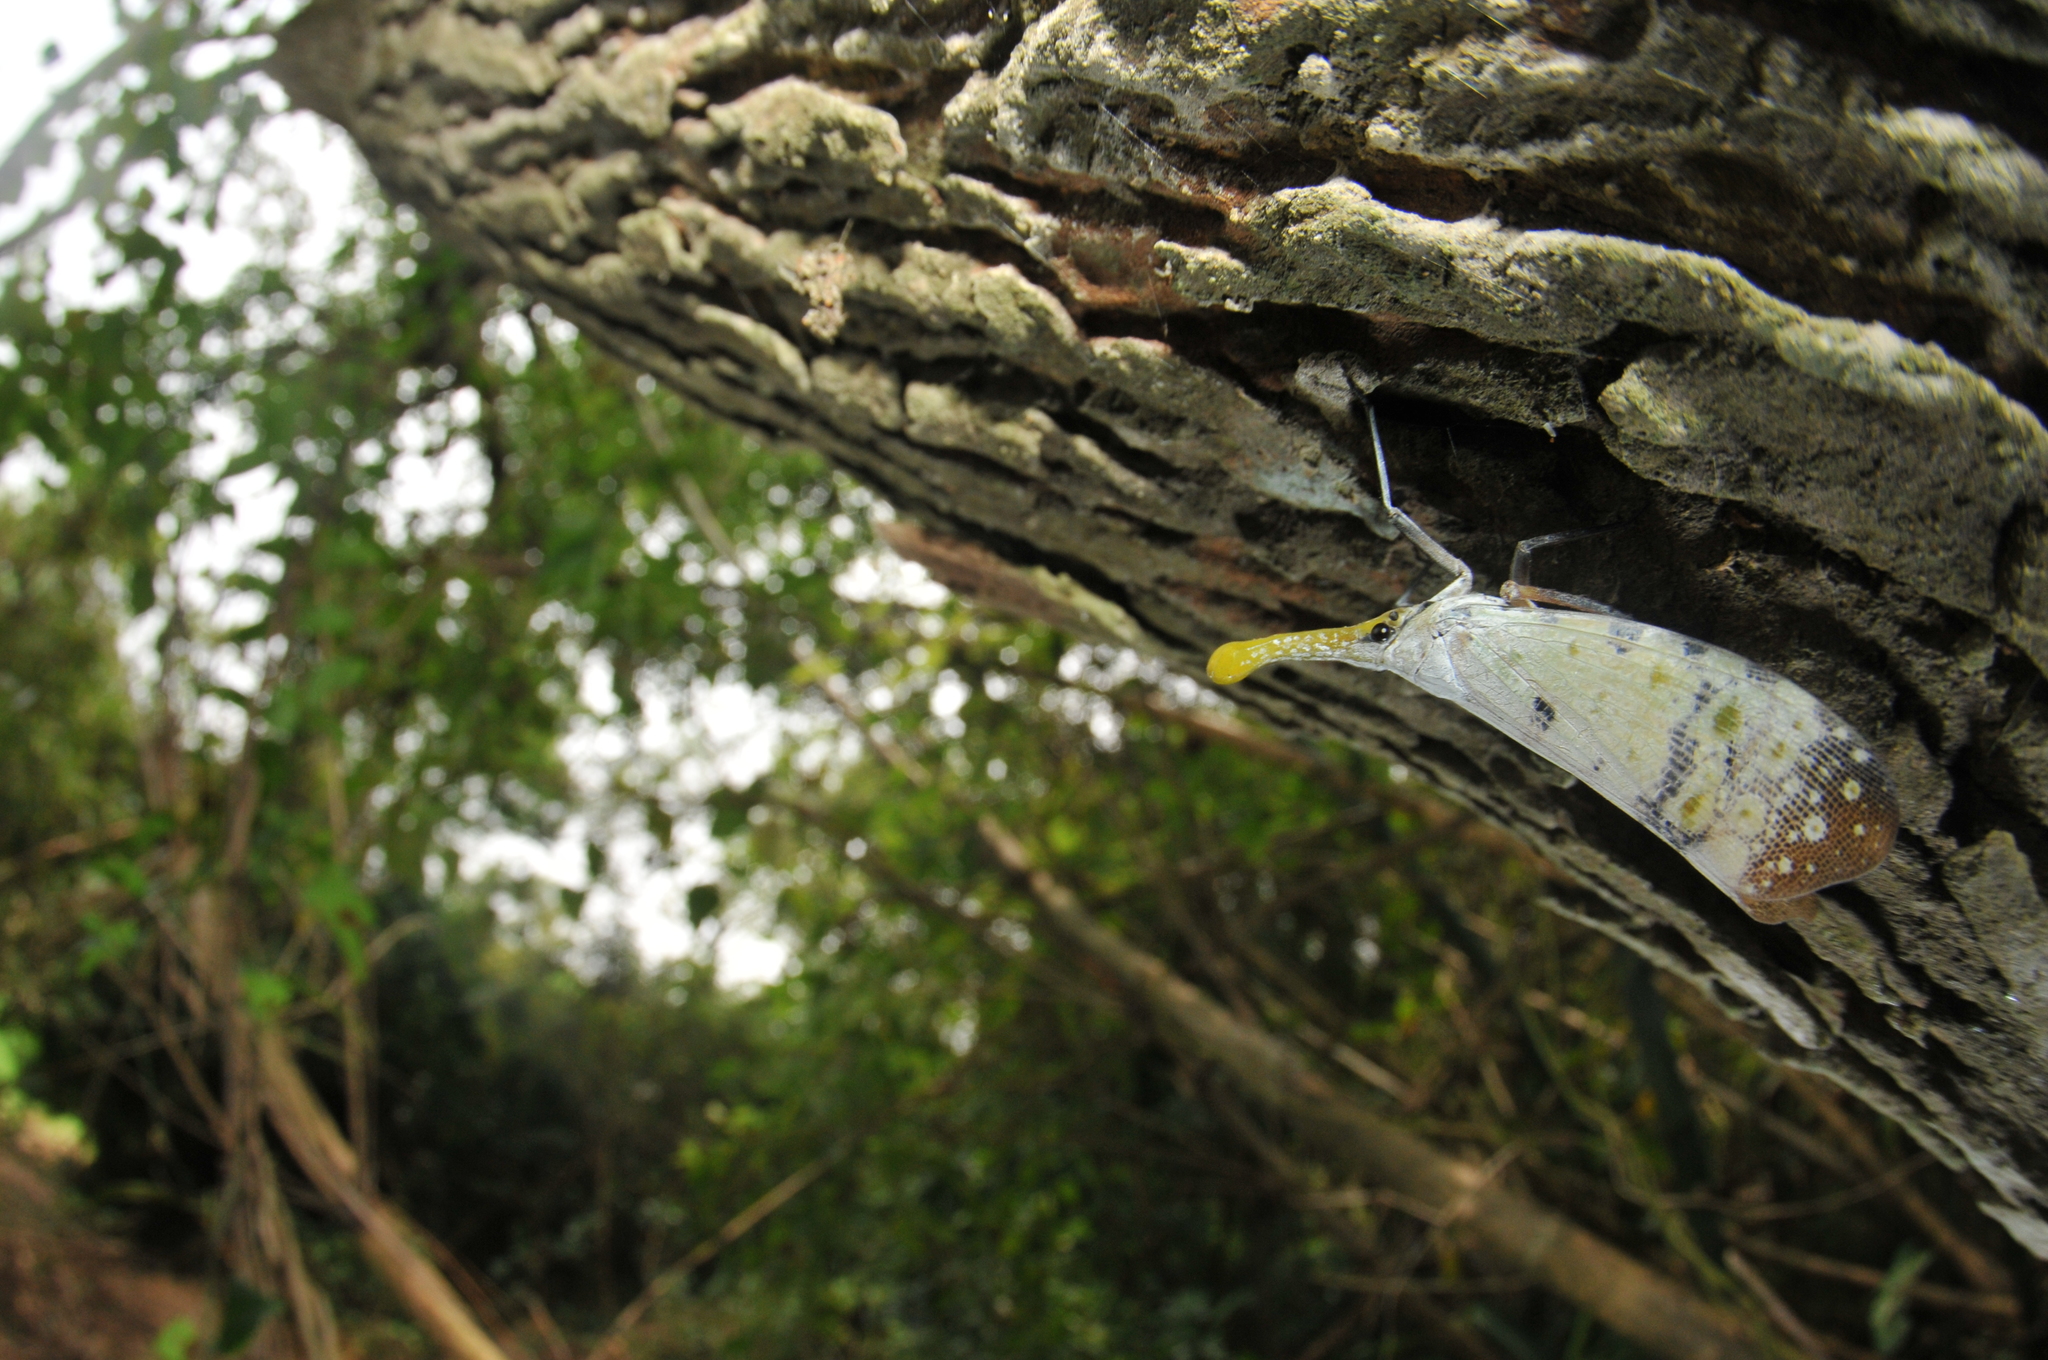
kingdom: Animalia
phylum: Arthropoda
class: Insecta
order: Hemiptera
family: Fulgoridae
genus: Pyrops
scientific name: Pyrops watanabei
